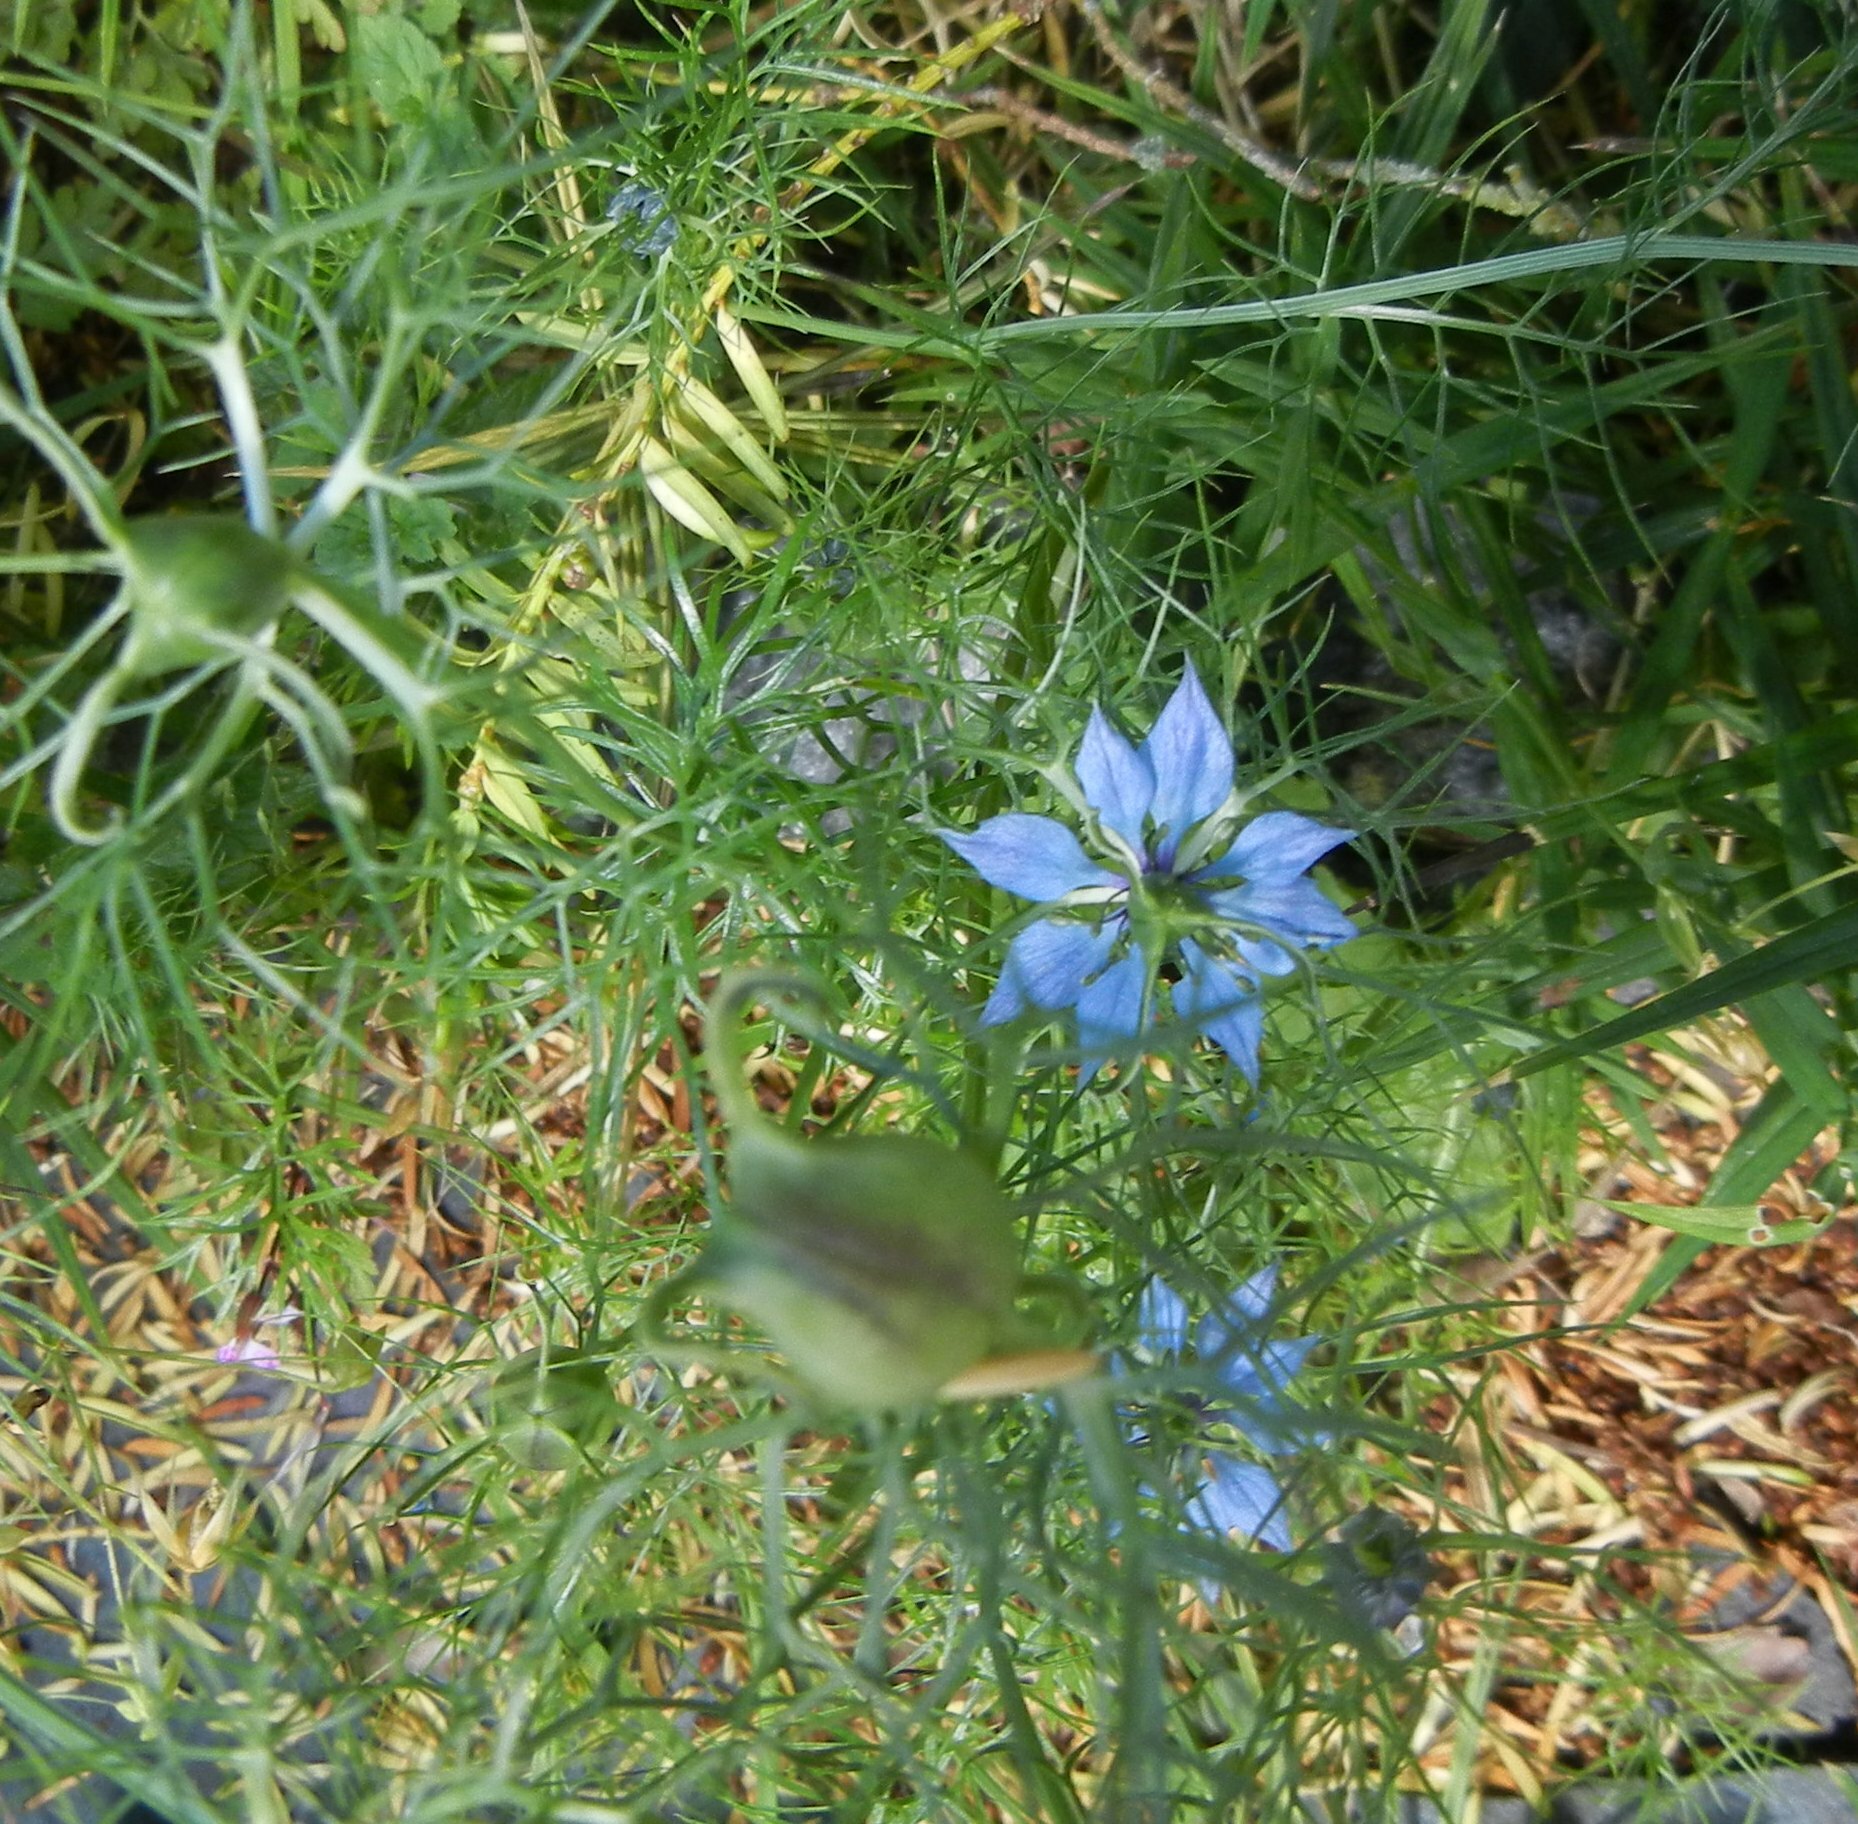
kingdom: Plantae
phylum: Tracheophyta
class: Magnoliopsida
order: Ranunculales
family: Ranunculaceae
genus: Nigella
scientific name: Nigella damascena
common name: Love-in-a-mist
